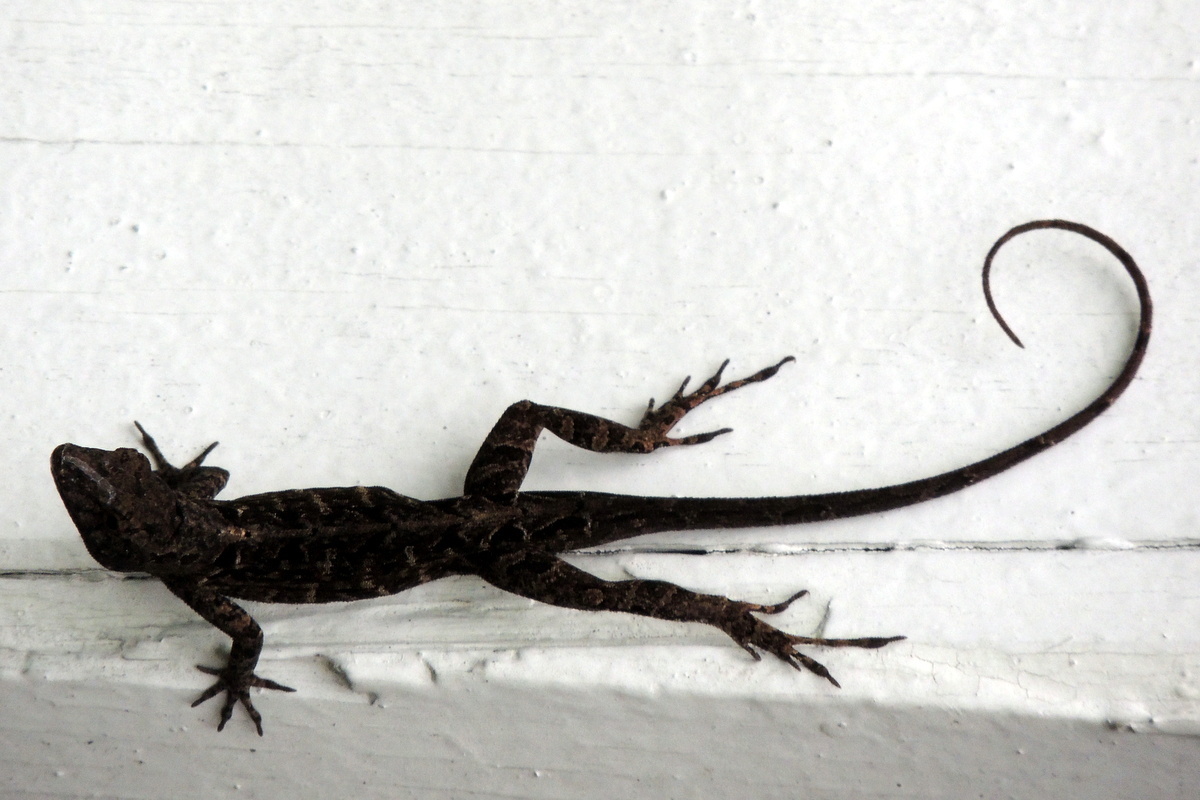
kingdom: Animalia
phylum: Chordata
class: Squamata
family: Dactyloidae
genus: Anolis
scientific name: Anolis sagrei
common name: Brown anole
